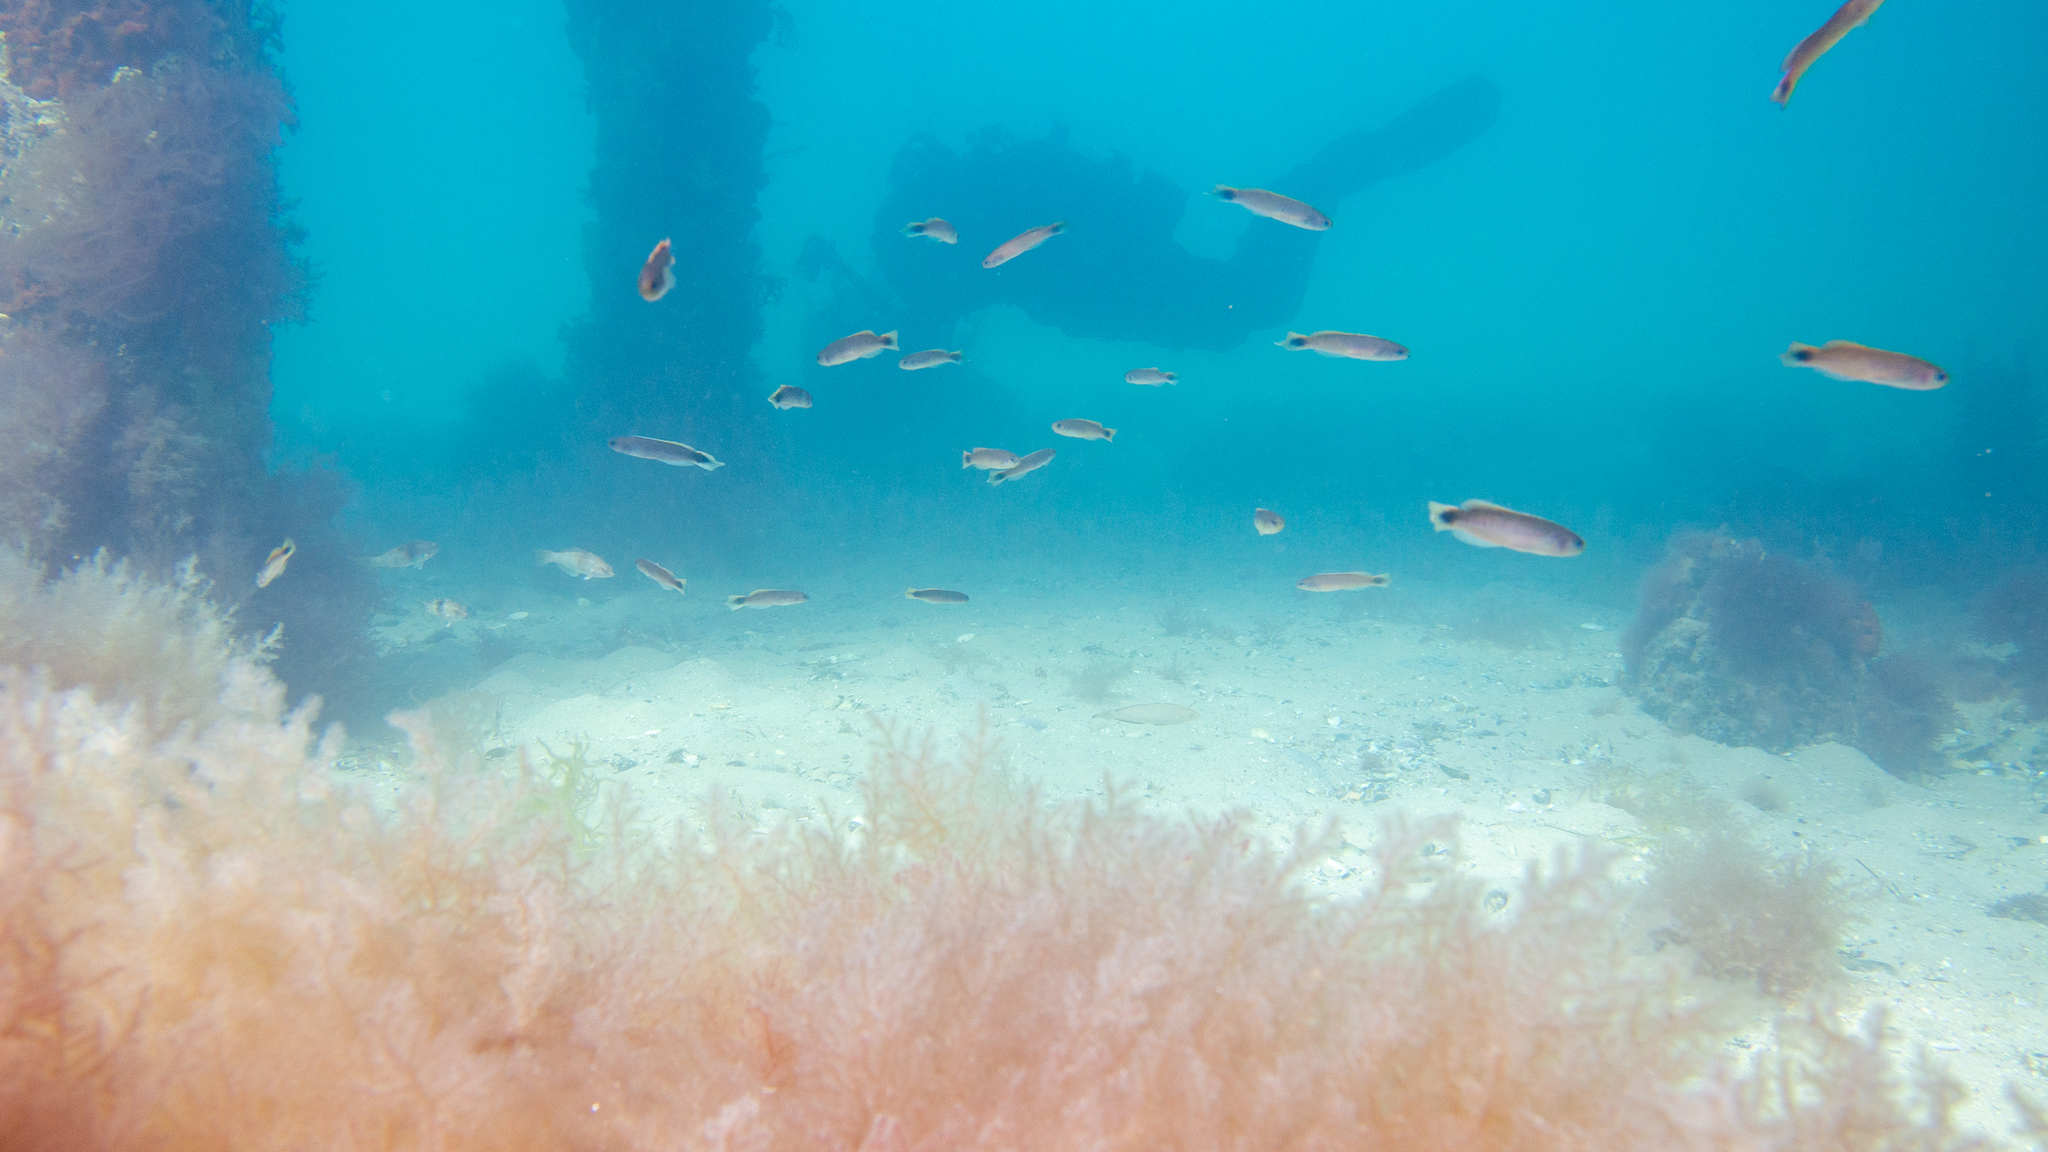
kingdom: Animalia
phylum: Chordata
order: Perciformes
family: Plesiopidae
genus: Trachinops
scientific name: Trachinops caudimaculatus
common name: Blotched-tailed trachinops
